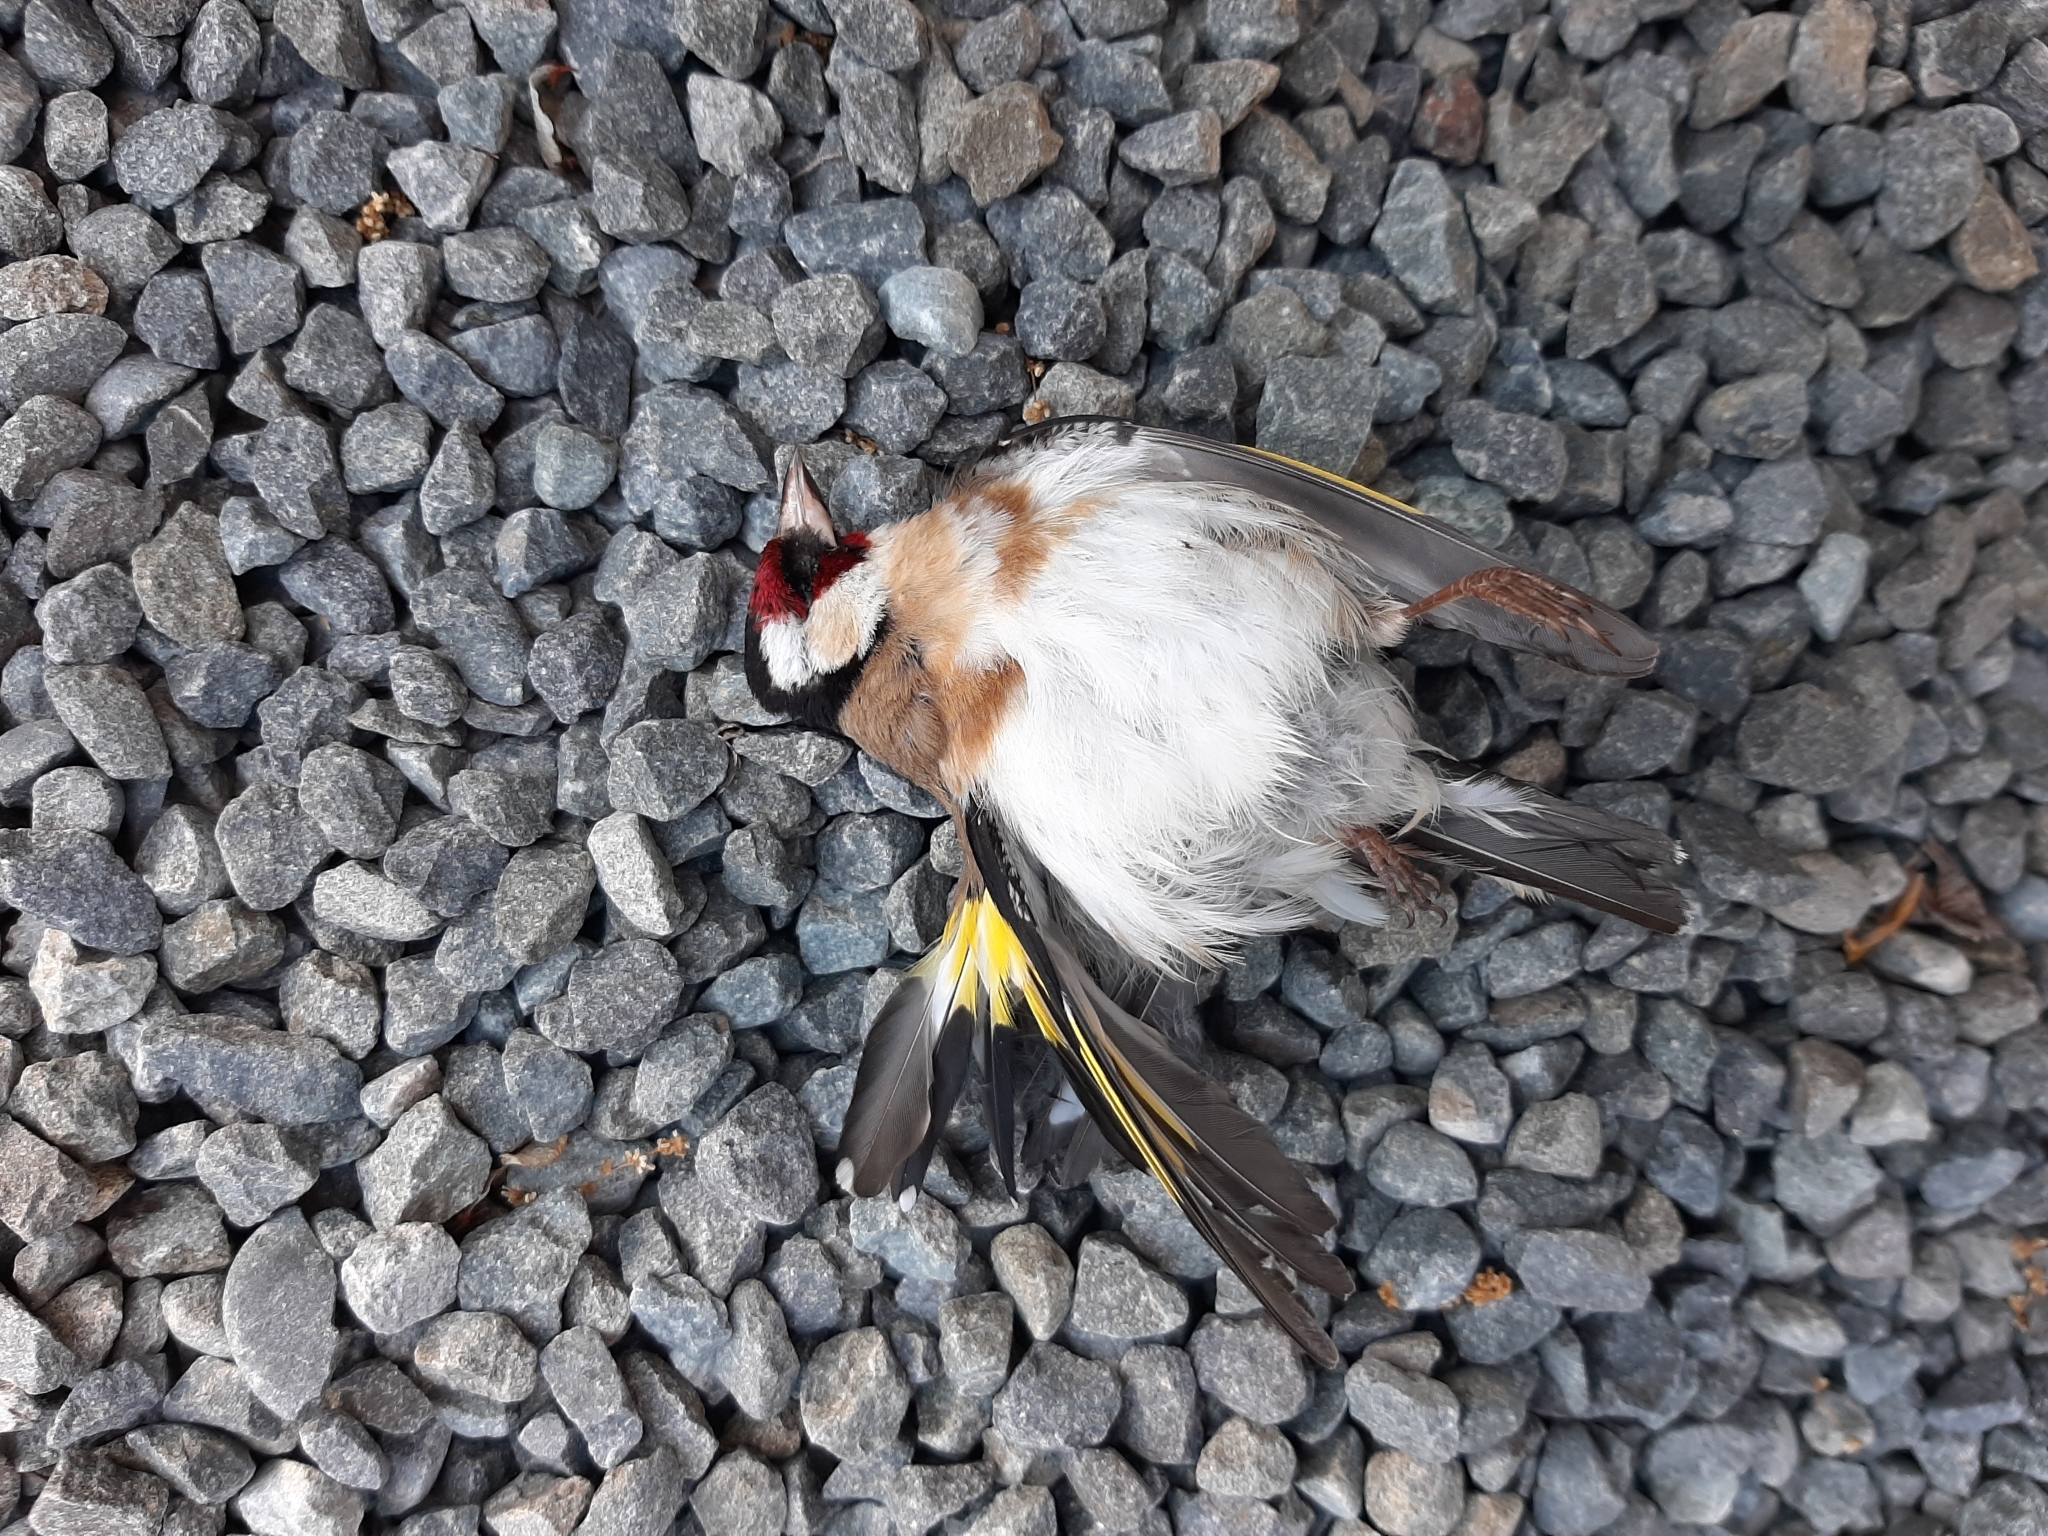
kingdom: Animalia
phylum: Chordata
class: Aves
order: Passeriformes
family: Fringillidae
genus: Carduelis
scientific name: Carduelis carduelis
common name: European goldfinch
